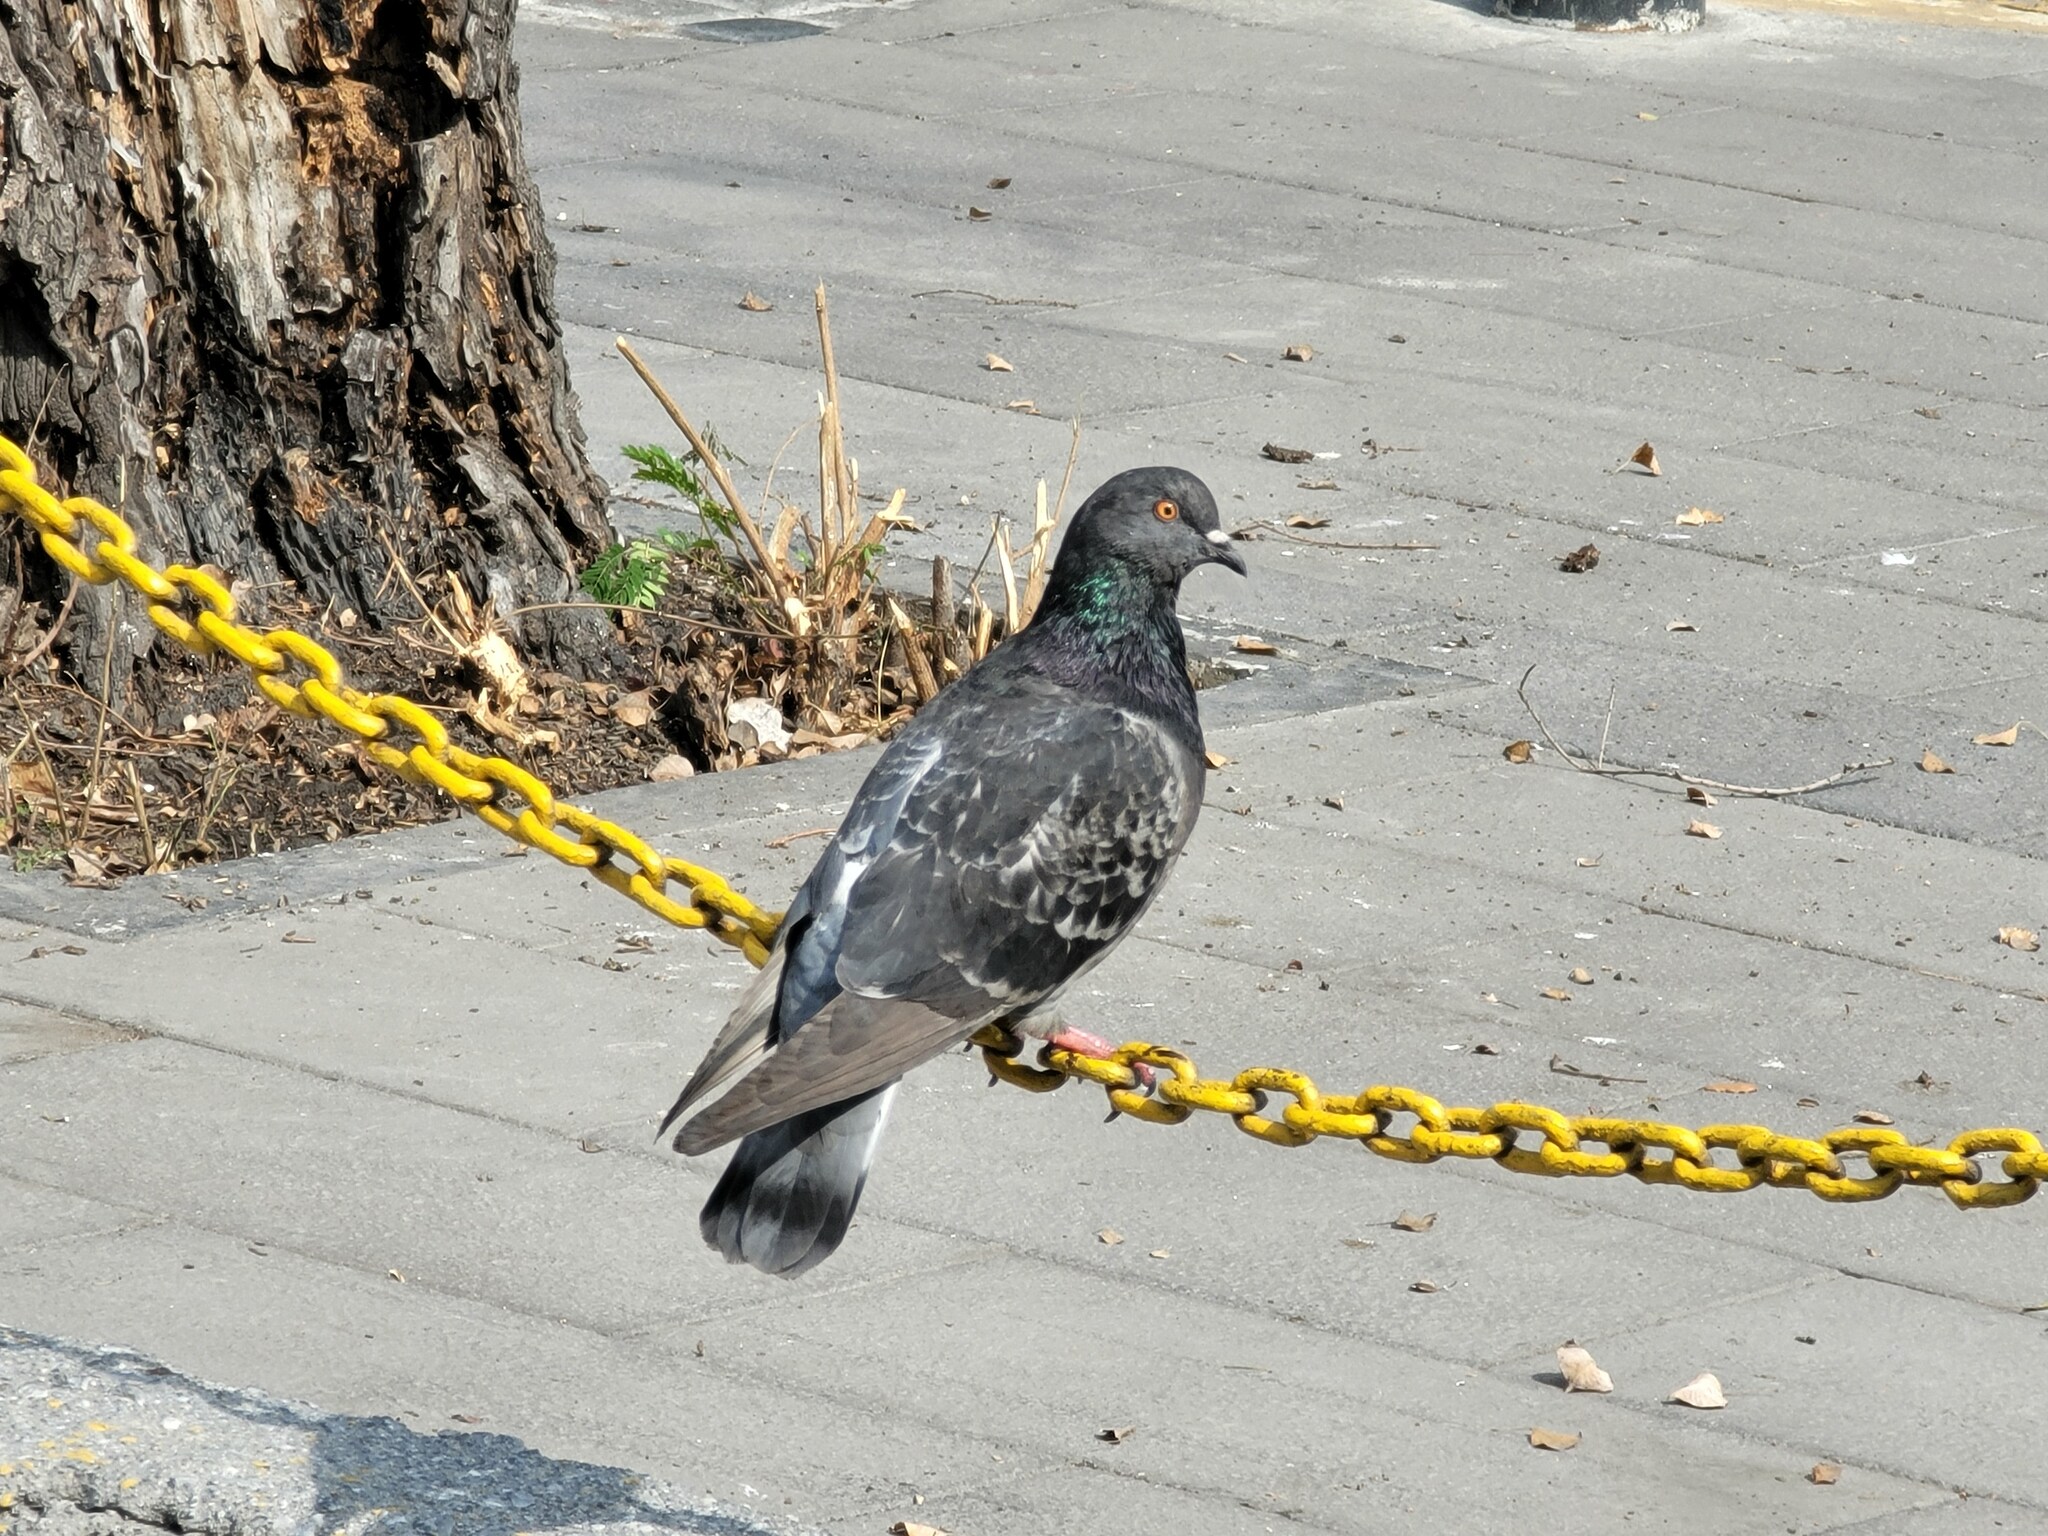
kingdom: Animalia
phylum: Chordata
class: Aves
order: Columbiformes
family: Columbidae
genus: Columba
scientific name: Columba livia
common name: Rock pigeon
